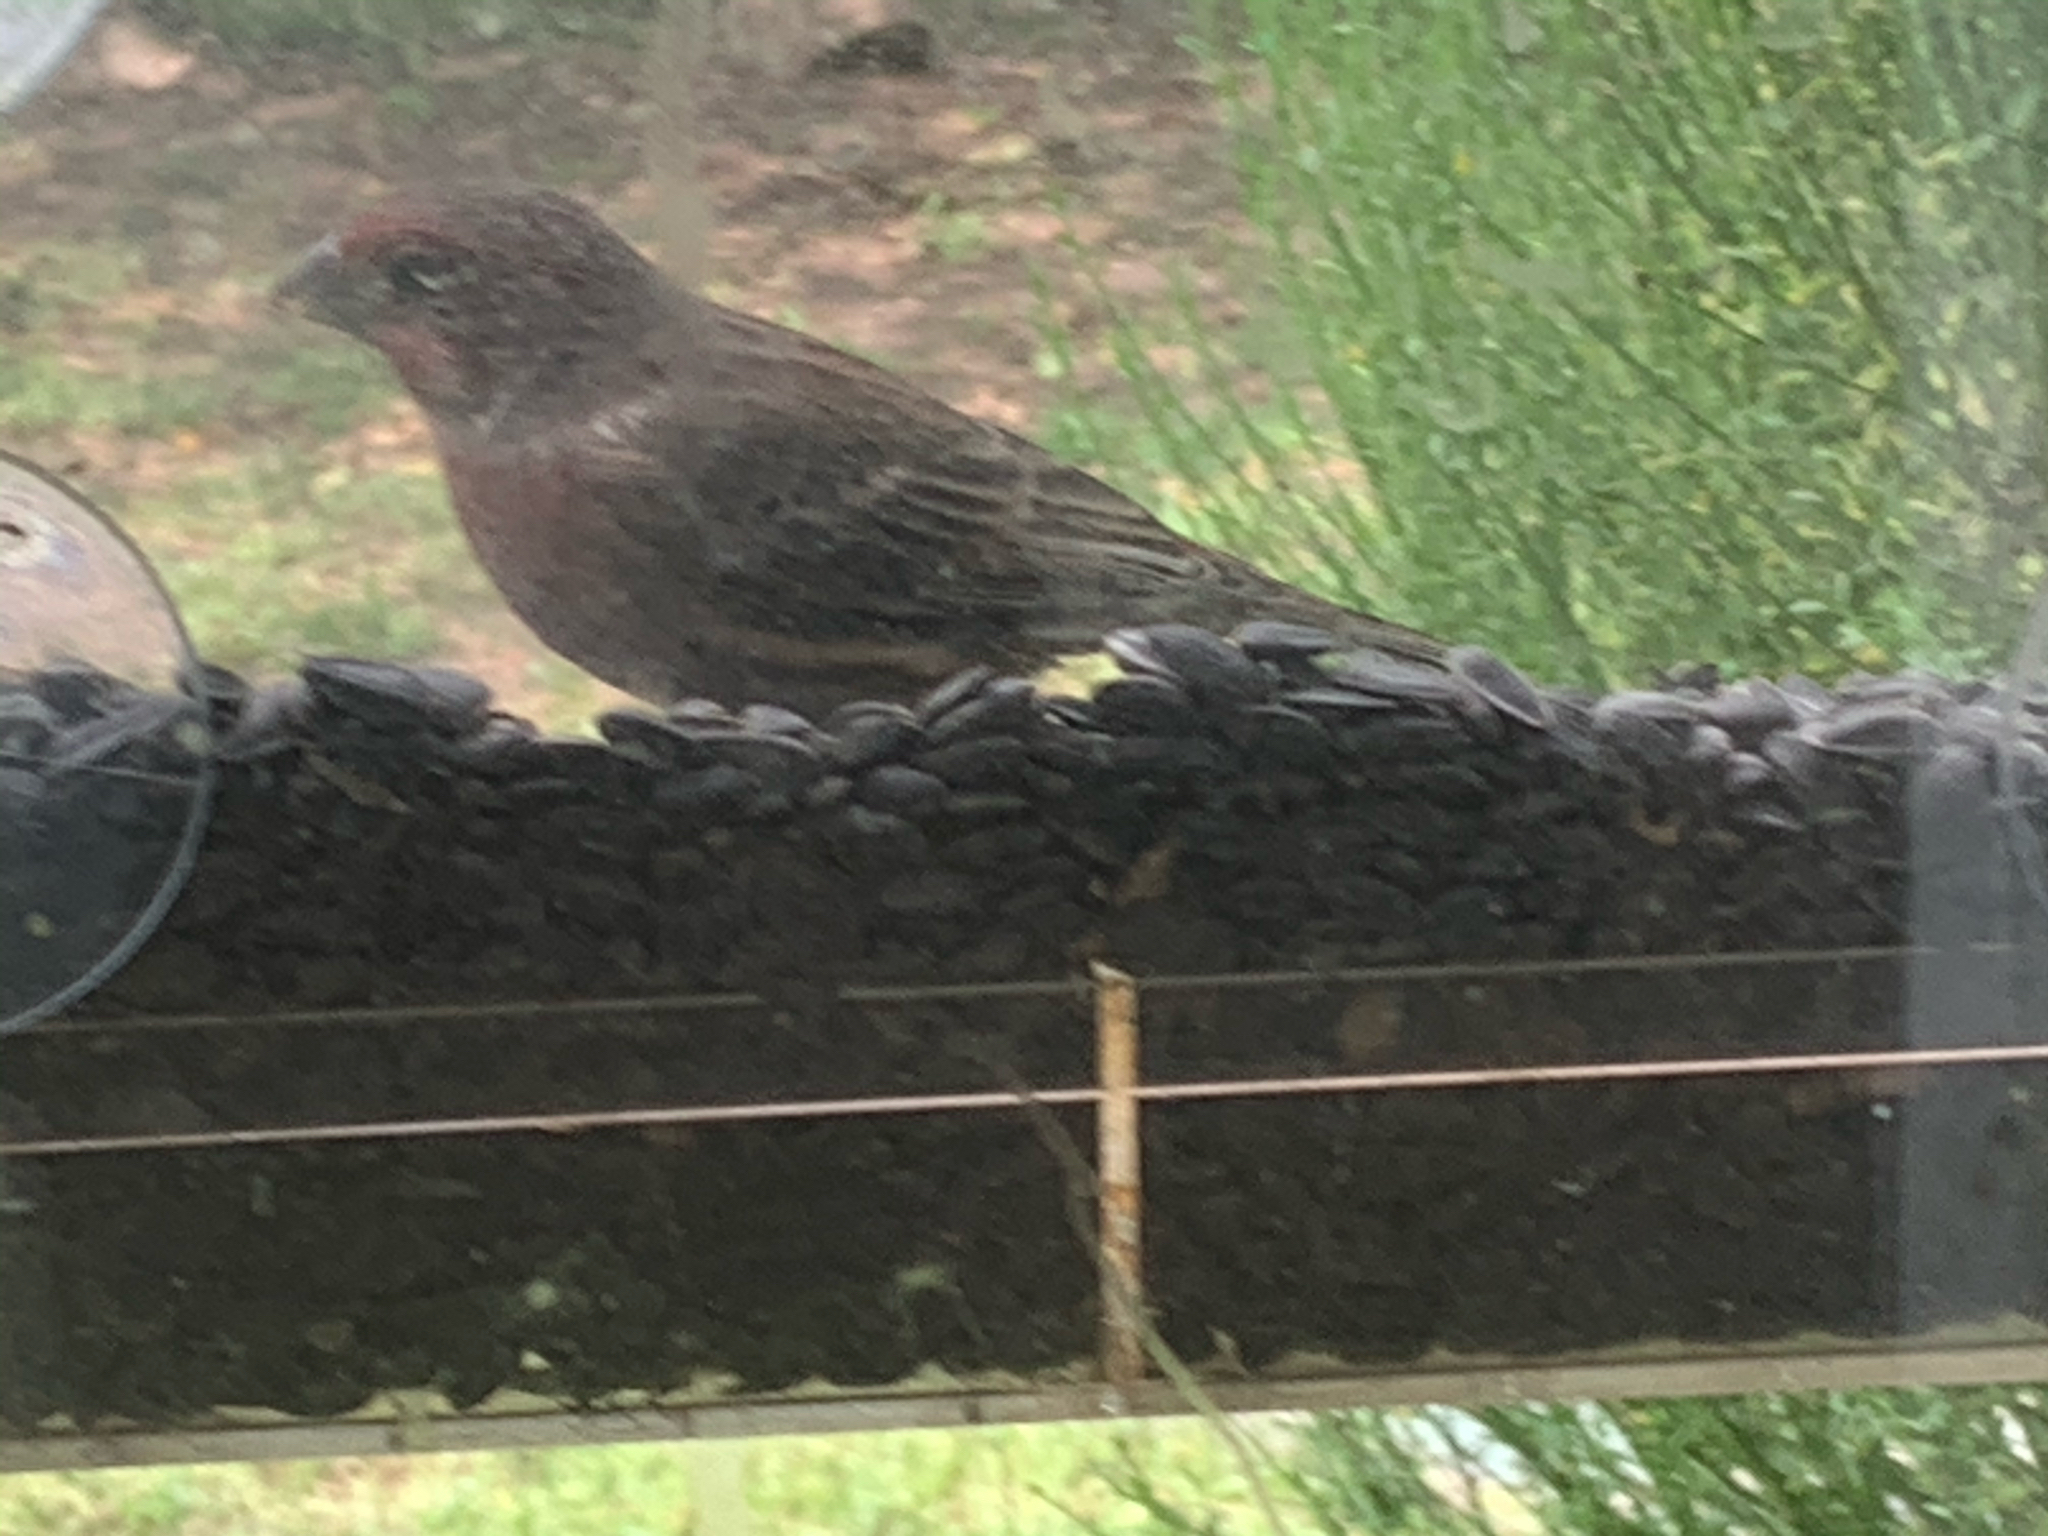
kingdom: Animalia
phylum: Chordata
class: Aves
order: Passeriformes
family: Fringillidae
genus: Haemorhous
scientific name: Haemorhous mexicanus
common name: House finch
